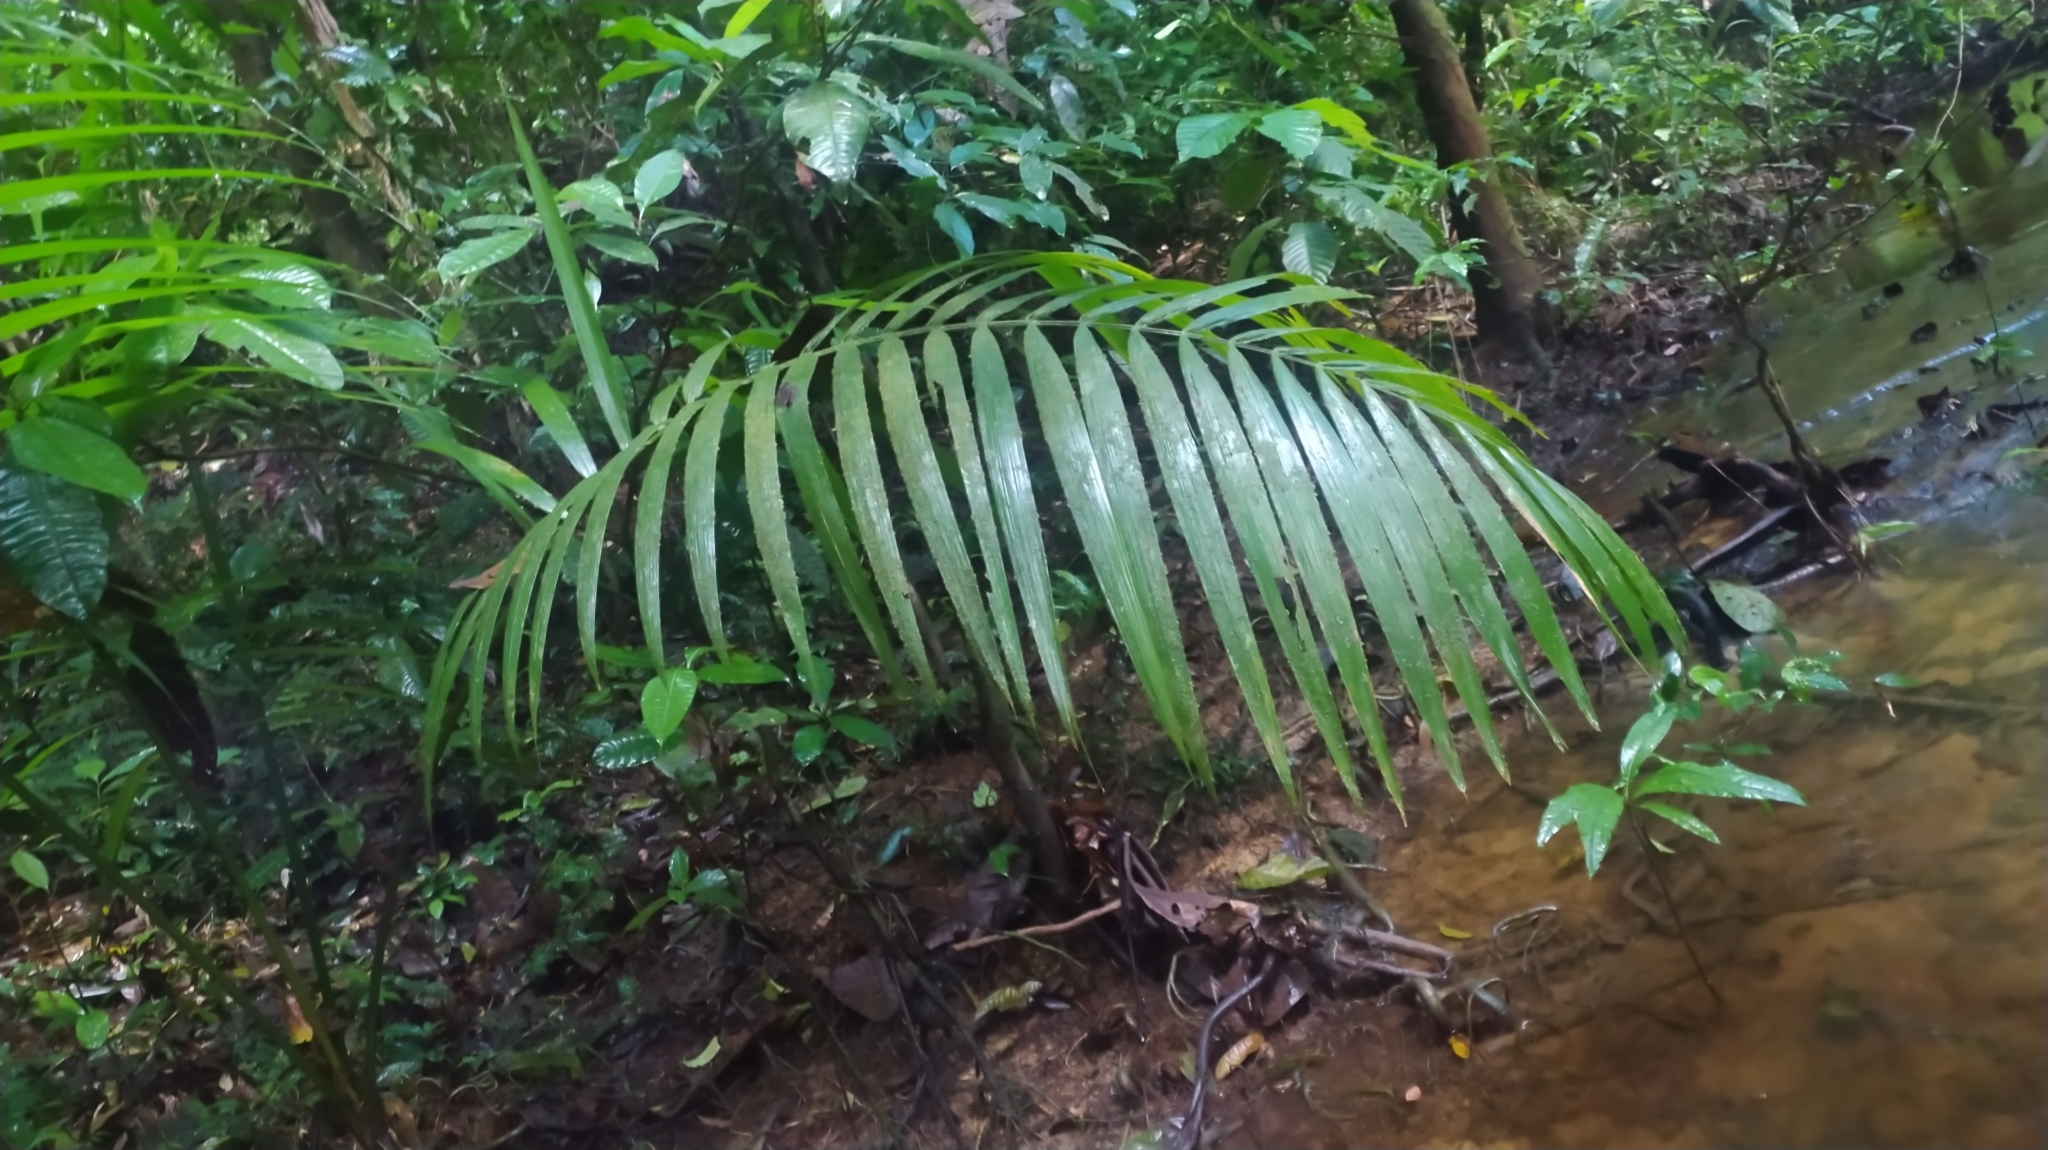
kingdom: Plantae
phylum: Tracheophyta
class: Liliopsida
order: Arecales
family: Arecaceae
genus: Euterpe
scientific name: Euterpe oleracea
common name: Assai palm
